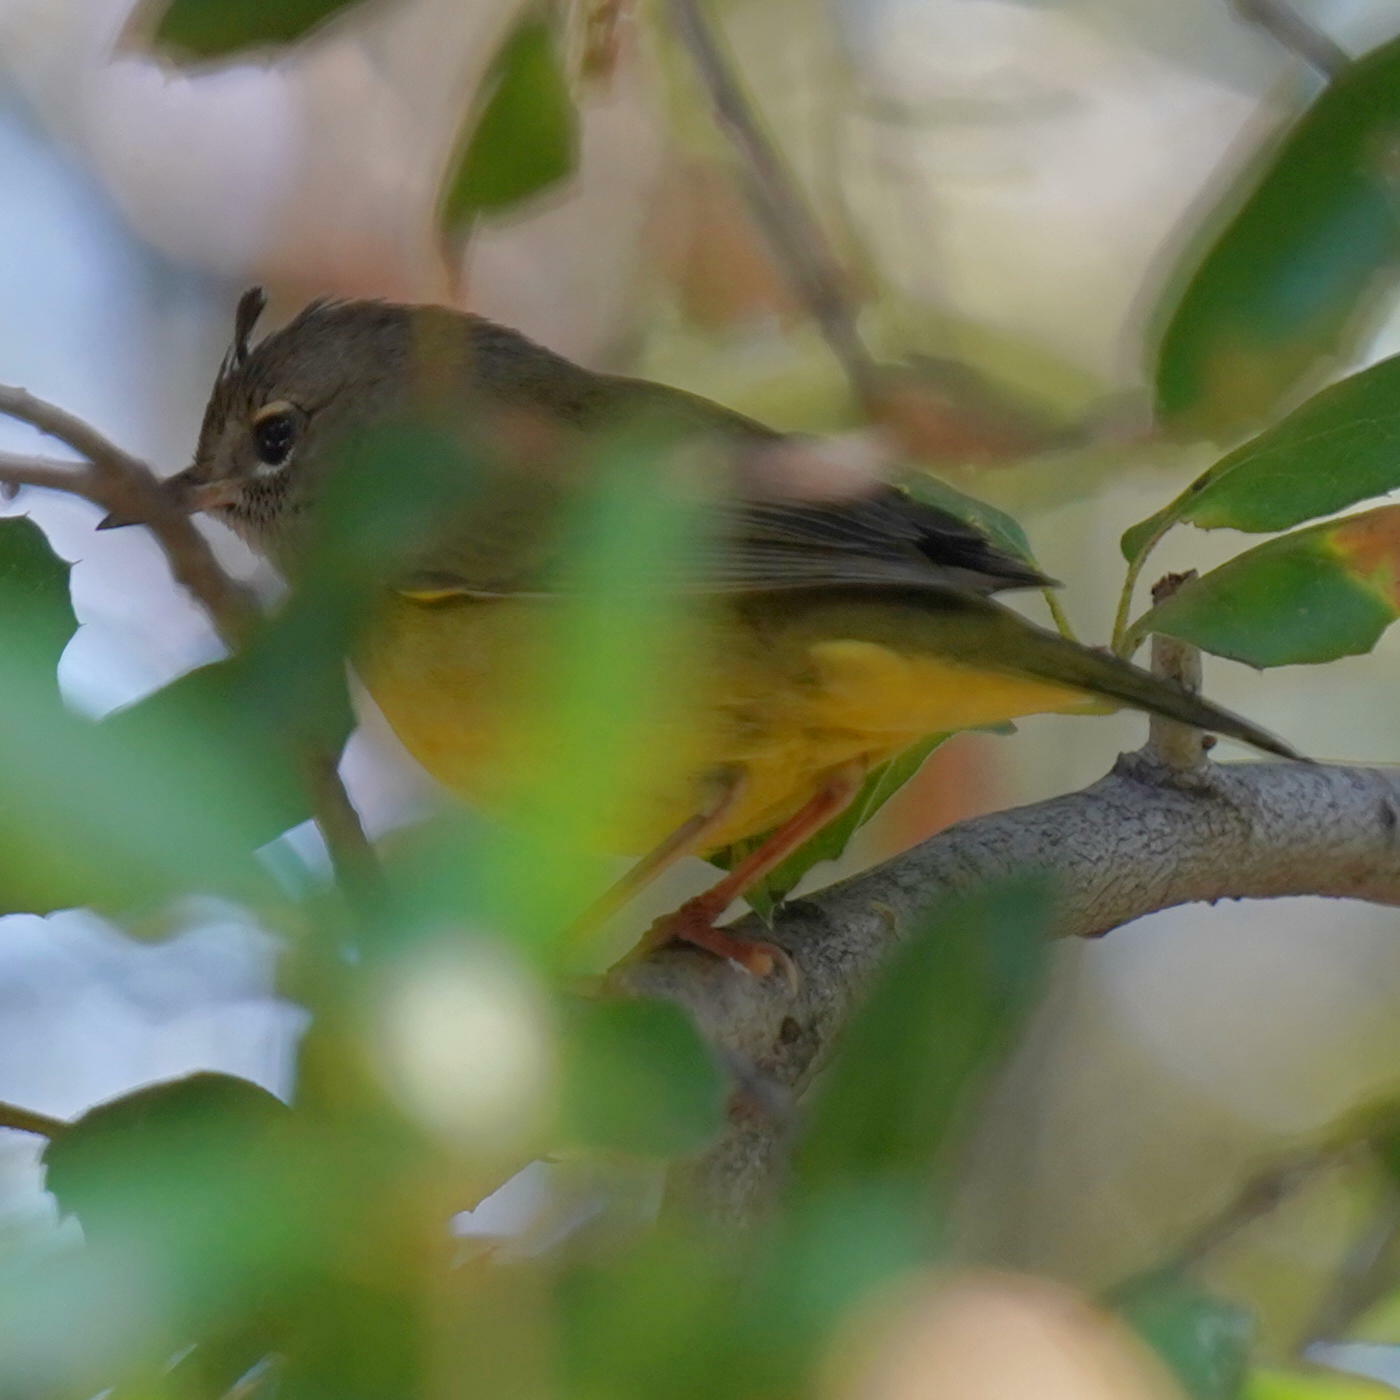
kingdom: Animalia
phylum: Chordata
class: Aves
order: Passeriformes
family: Parulidae
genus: Geothlypis
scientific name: Geothlypis tolmiei
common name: Macgillivray's warbler
